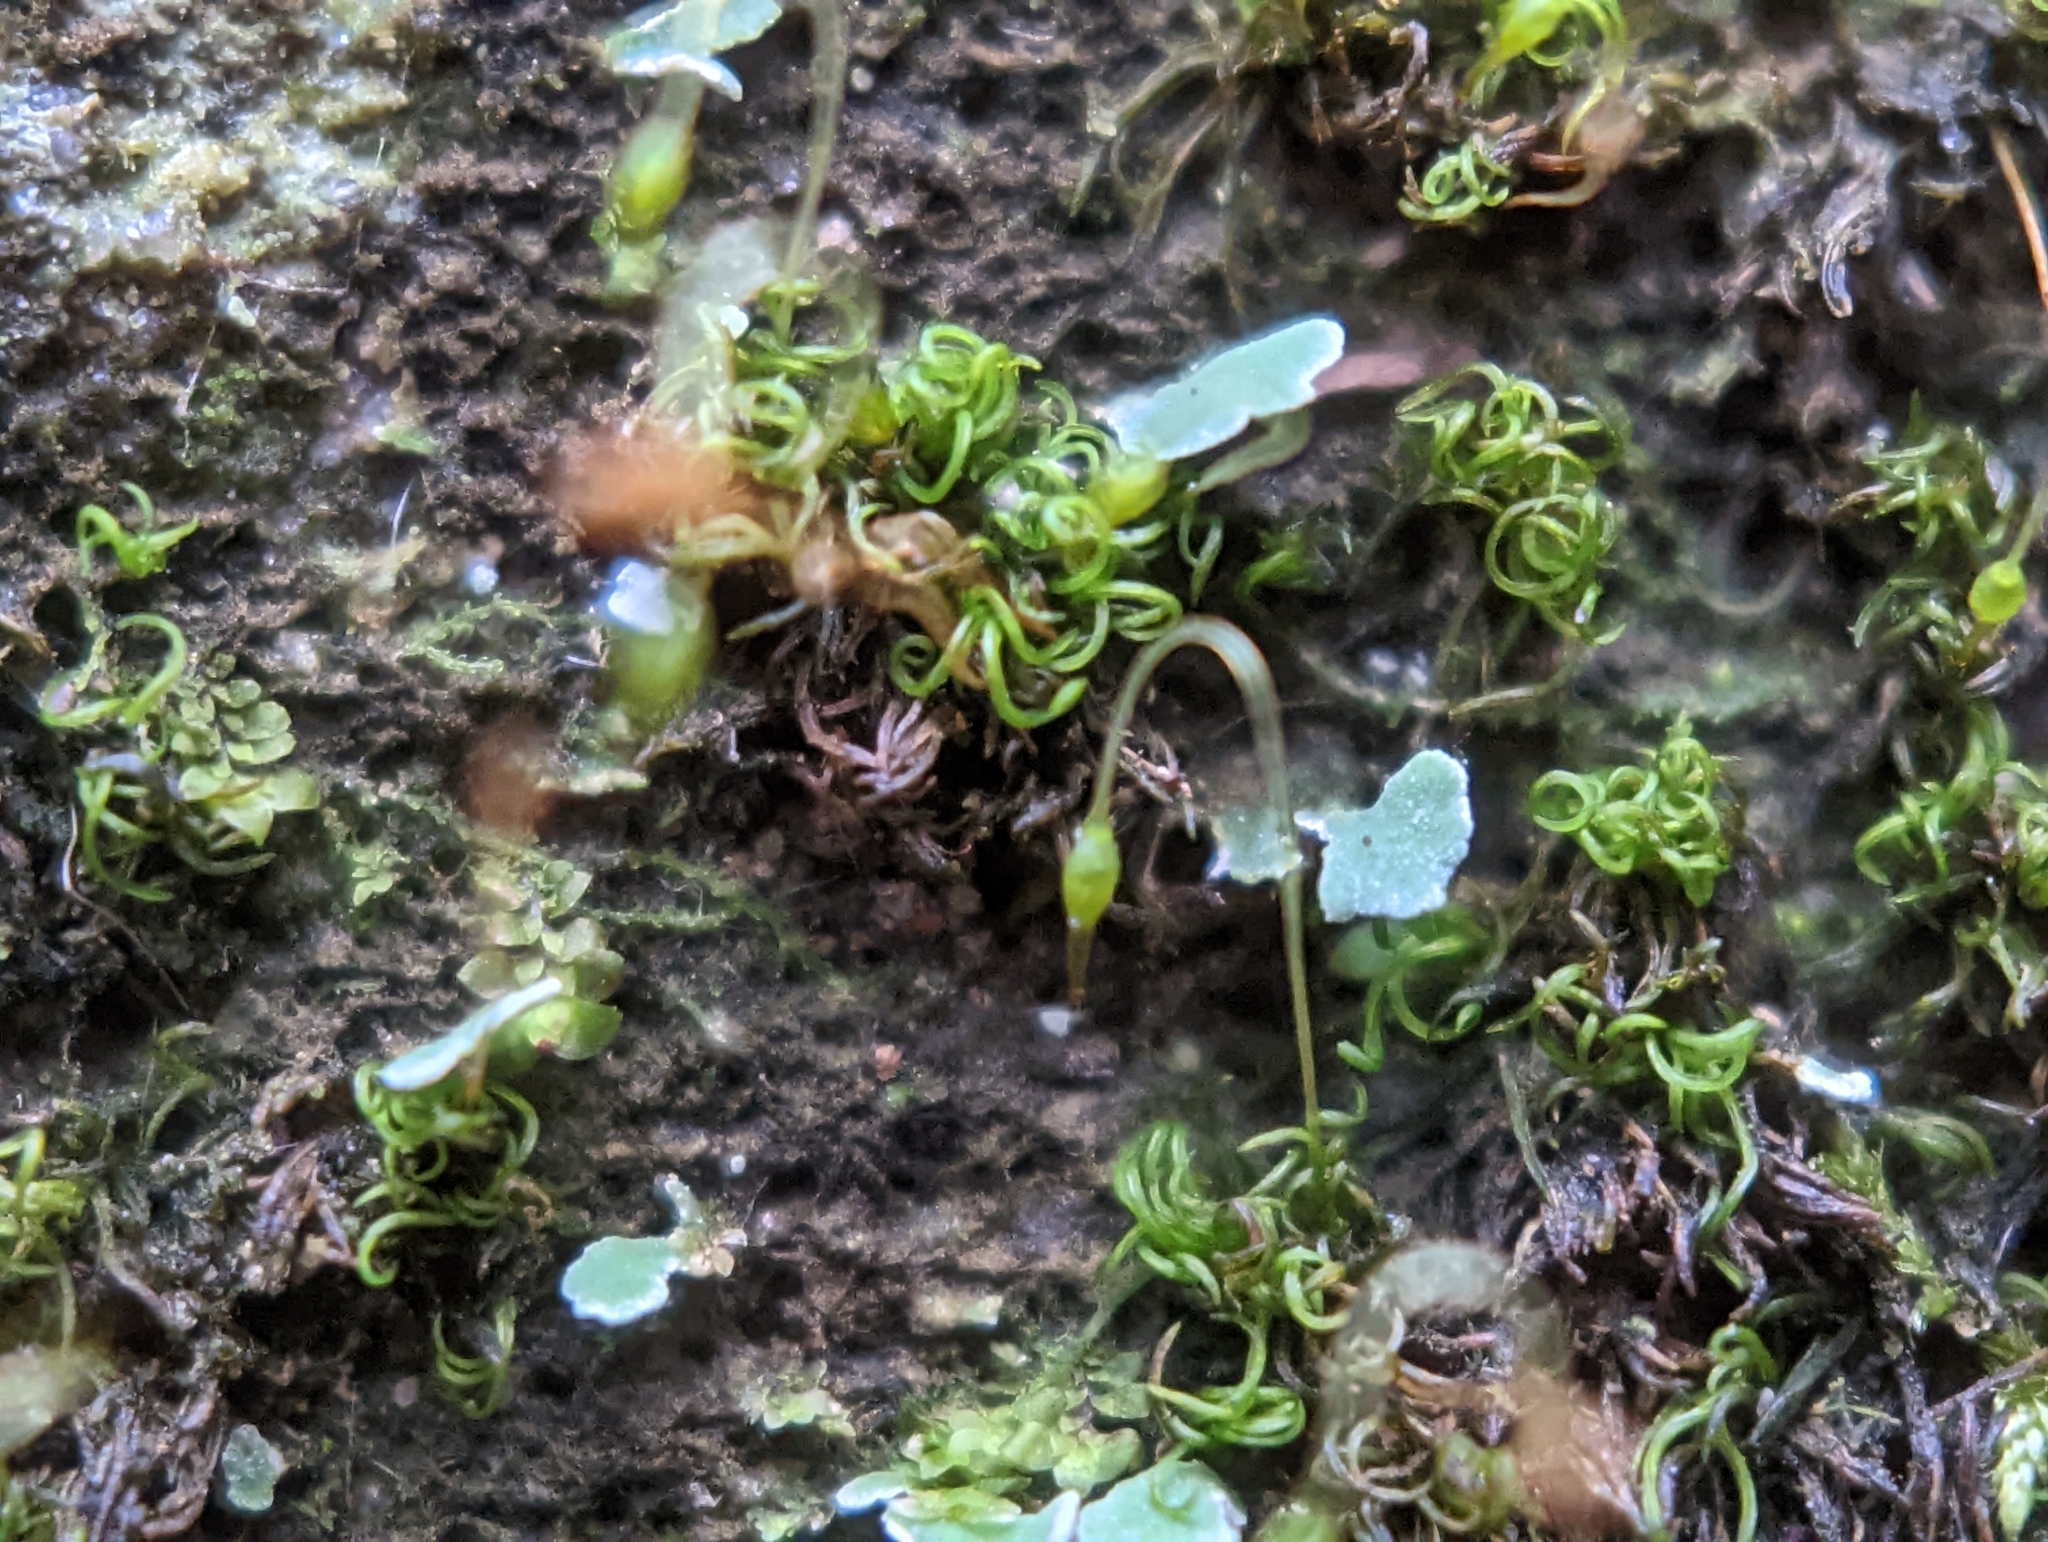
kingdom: Plantae
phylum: Bryophyta
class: Bryopsida
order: Grimmiales
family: Ptychomitriaceae
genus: Campylostelium
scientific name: Campylostelium saxicola
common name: Sandstone swan-neck moss
